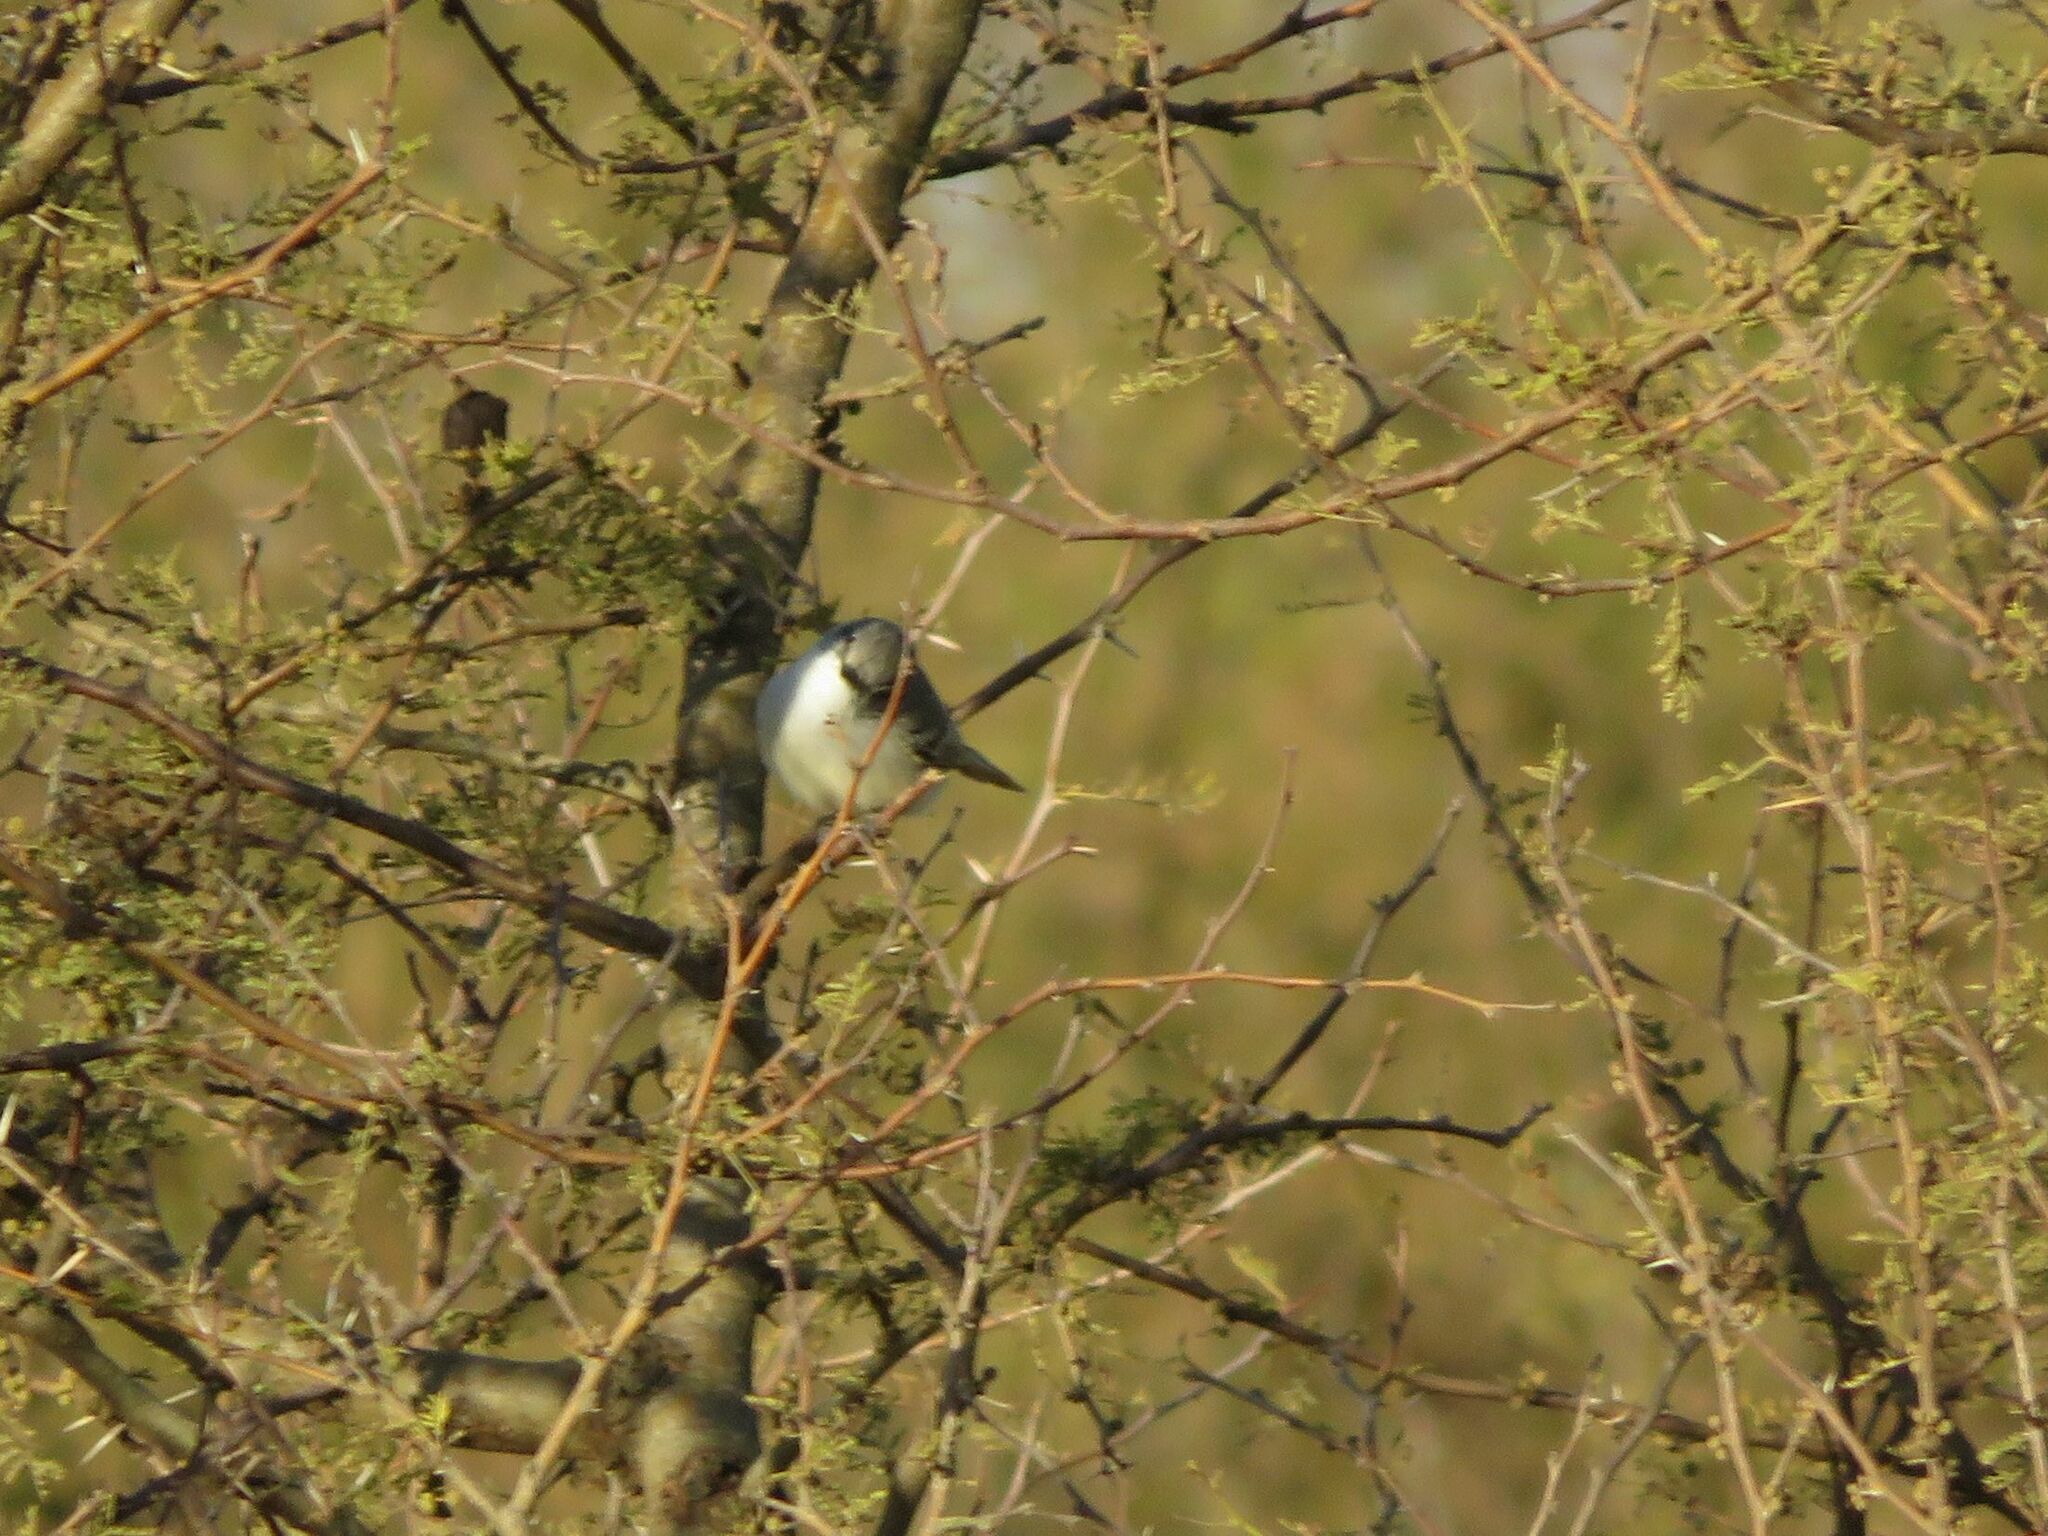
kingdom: Animalia
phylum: Chordata
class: Aves
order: Passeriformes
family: Tyrannidae
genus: Suiriri
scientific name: Suiriri suiriri
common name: Suiriri flycatcher
